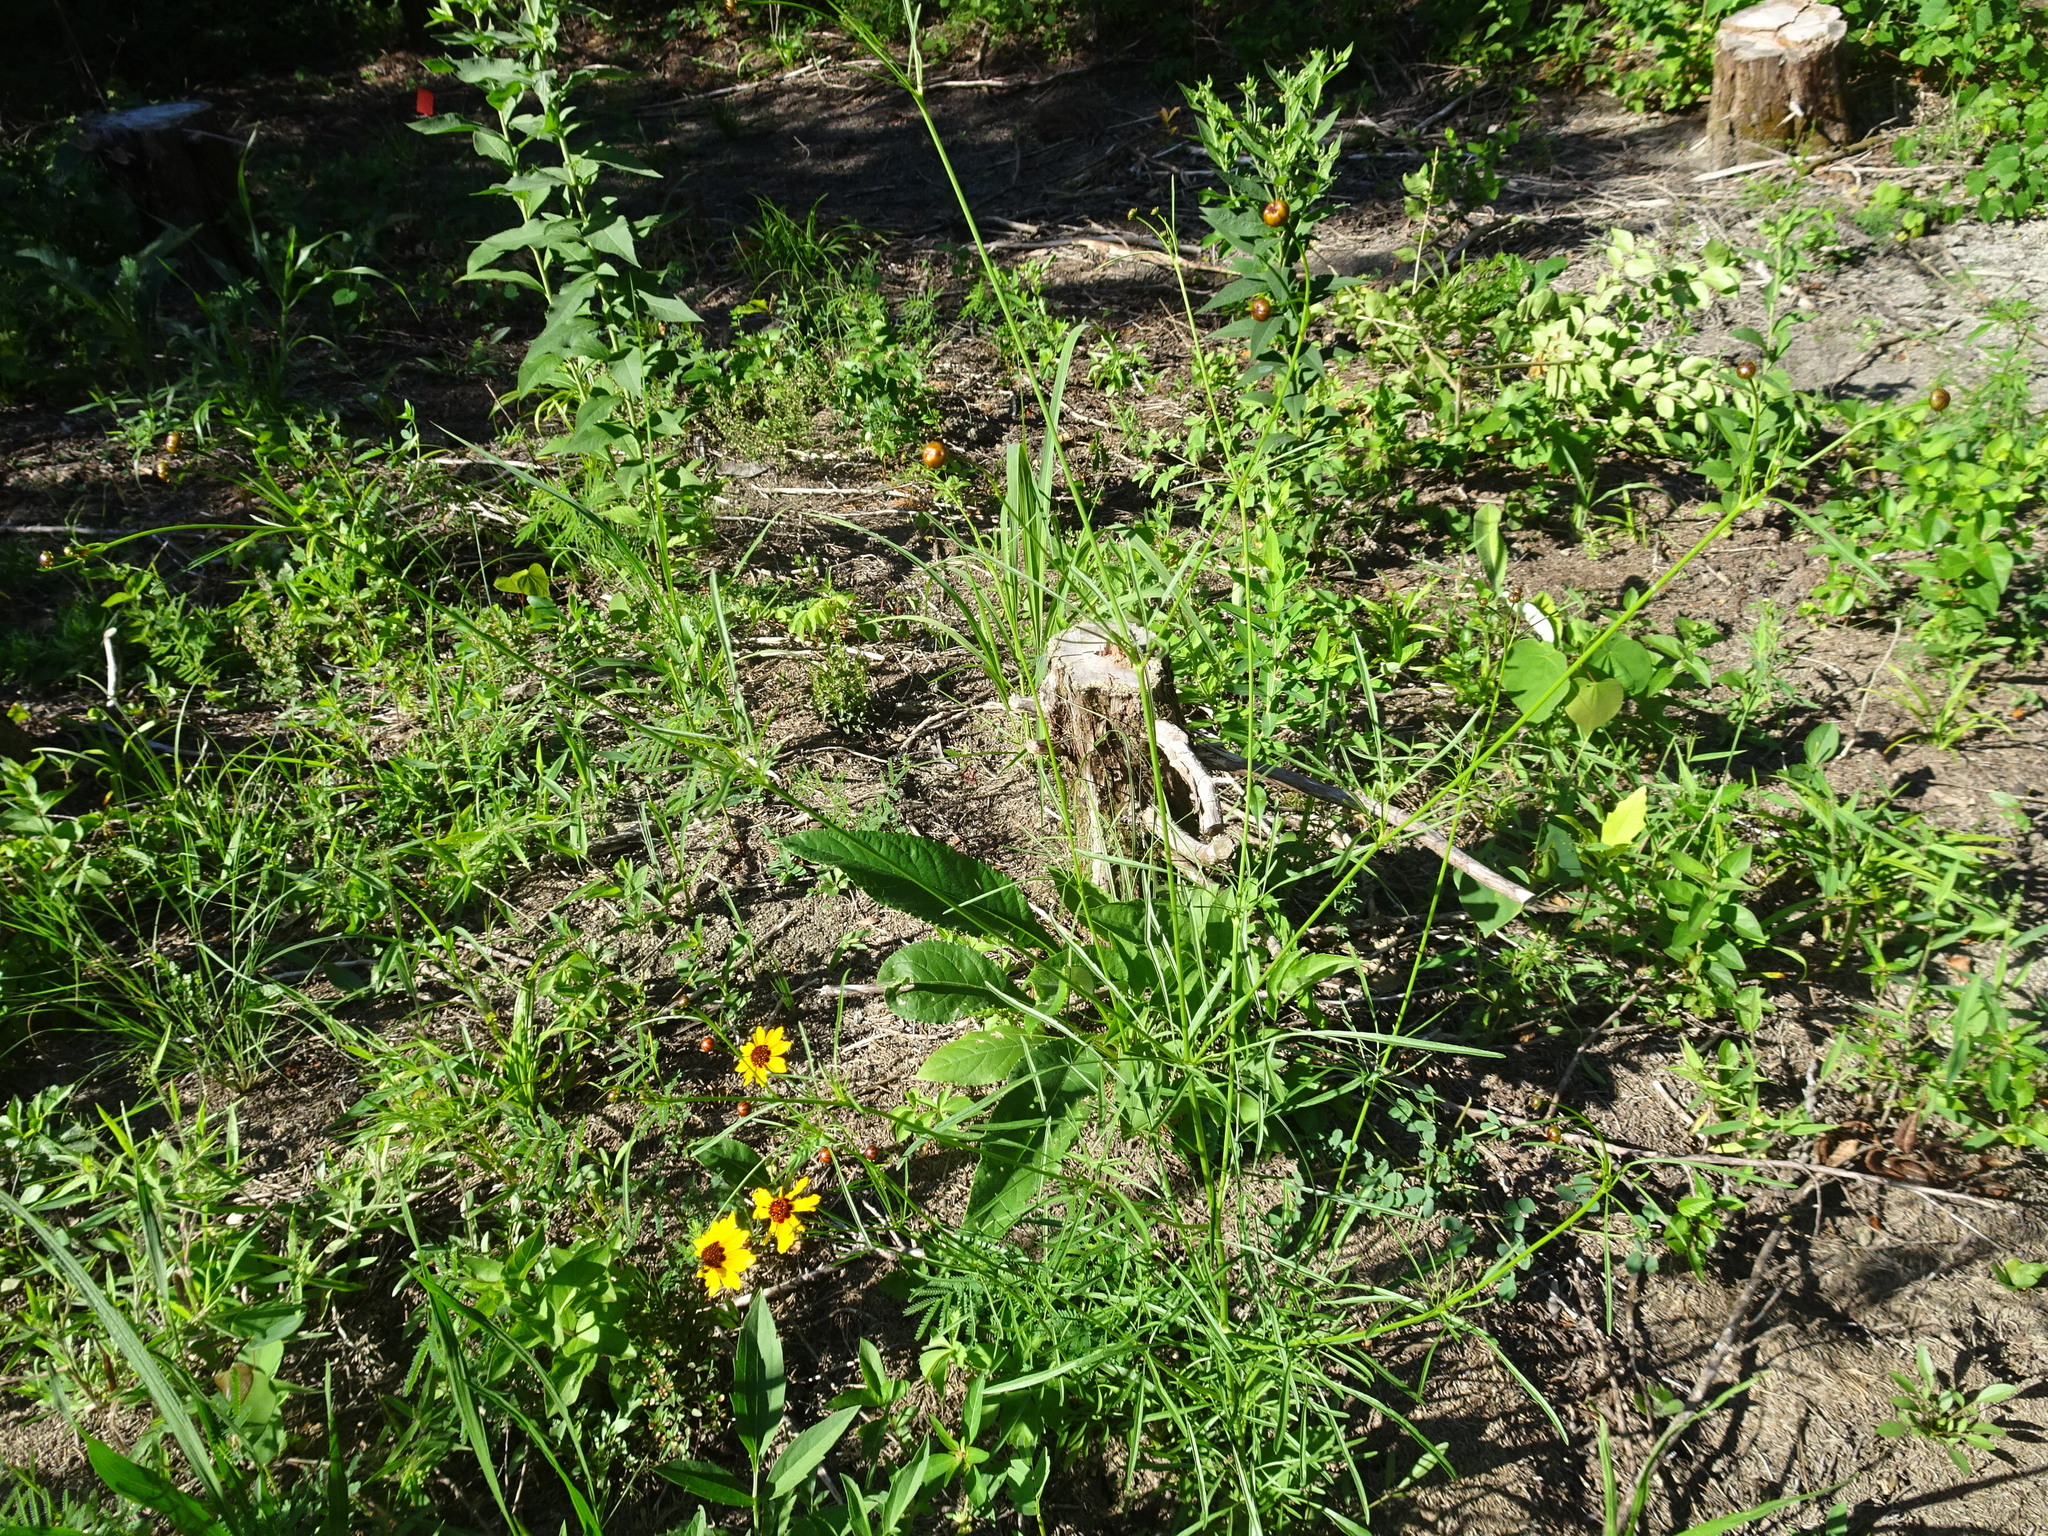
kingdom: Plantae
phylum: Tracheophyta
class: Magnoliopsida
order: Asterales
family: Asteraceae
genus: Coreopsis
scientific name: Coreopsis tinctoria
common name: Garden tickseed
